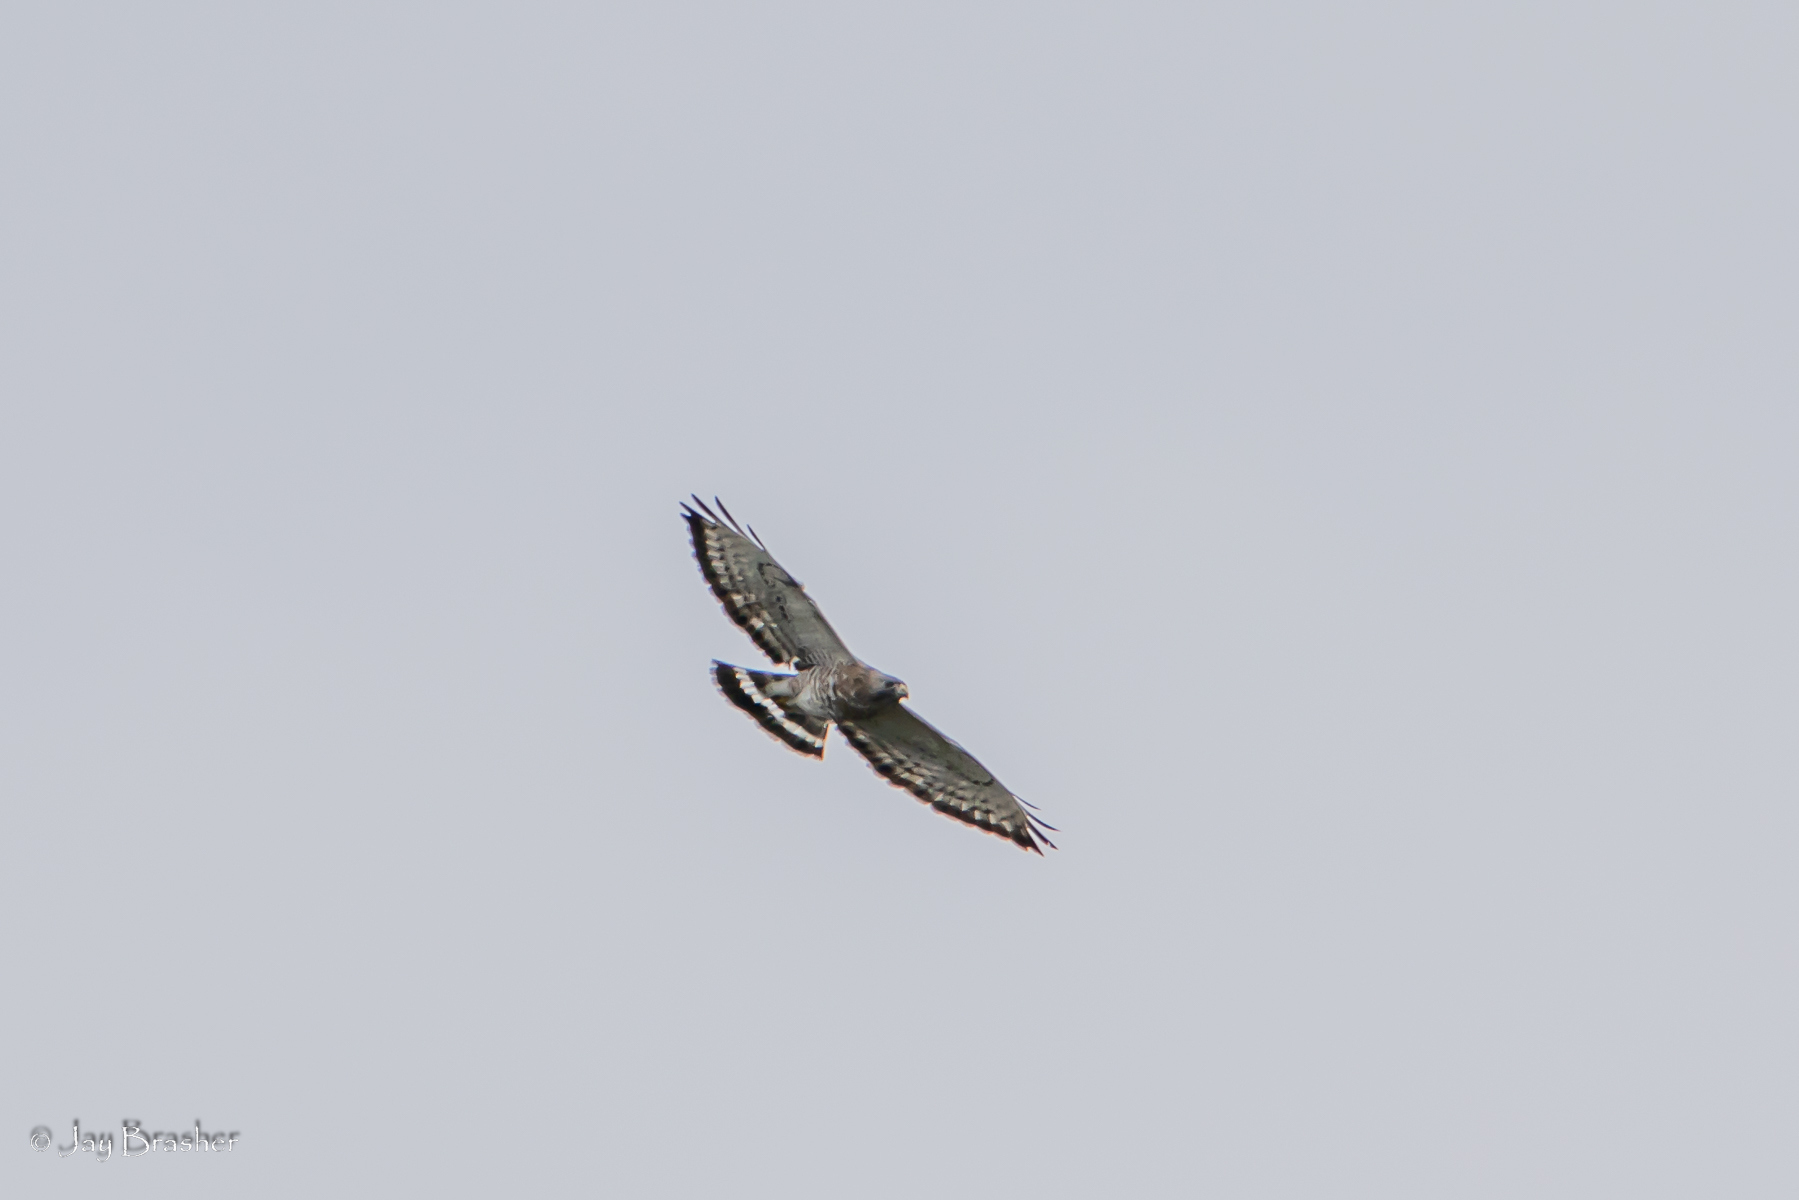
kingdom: Animalia
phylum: Chordata
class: Aves
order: Accipitriformes
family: Accipitridae
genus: Buteo
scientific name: Buteo platypterus
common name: Broad-winged hawk
